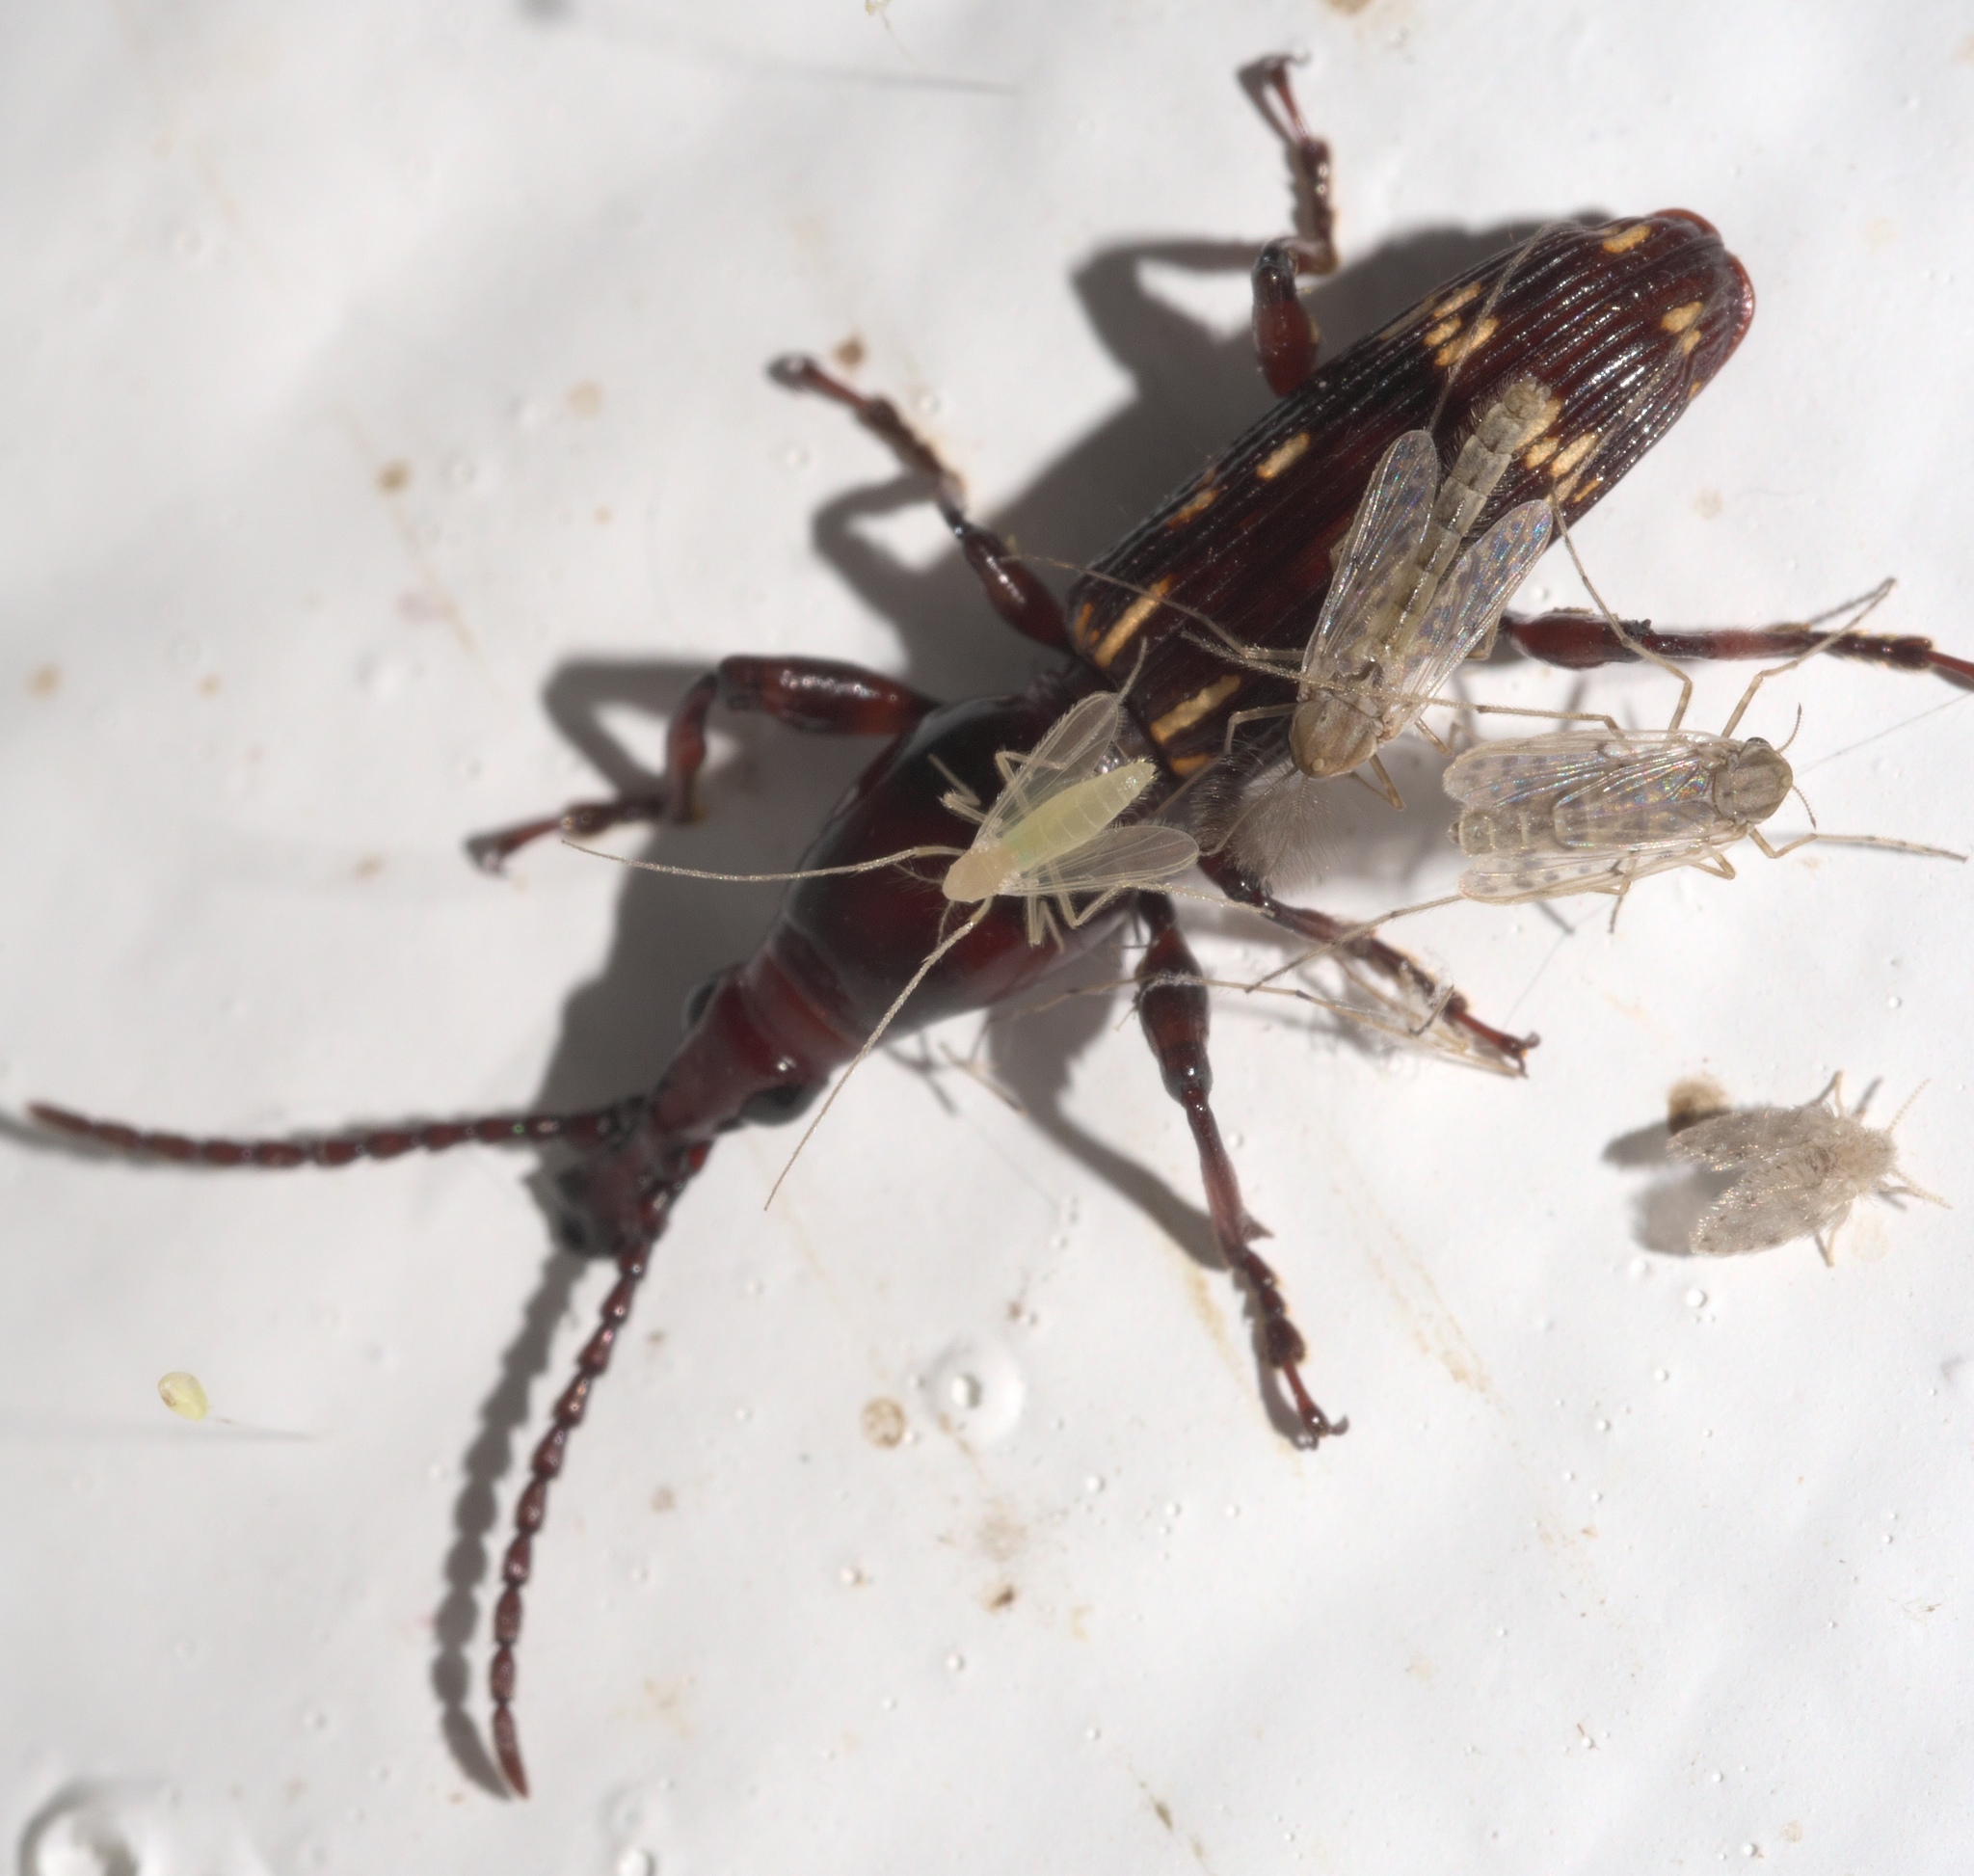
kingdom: Animalia
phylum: Arthropoda
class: Insecta
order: Coleoptera
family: Brentidae
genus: Arrenodes
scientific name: Arrenodes minutus
